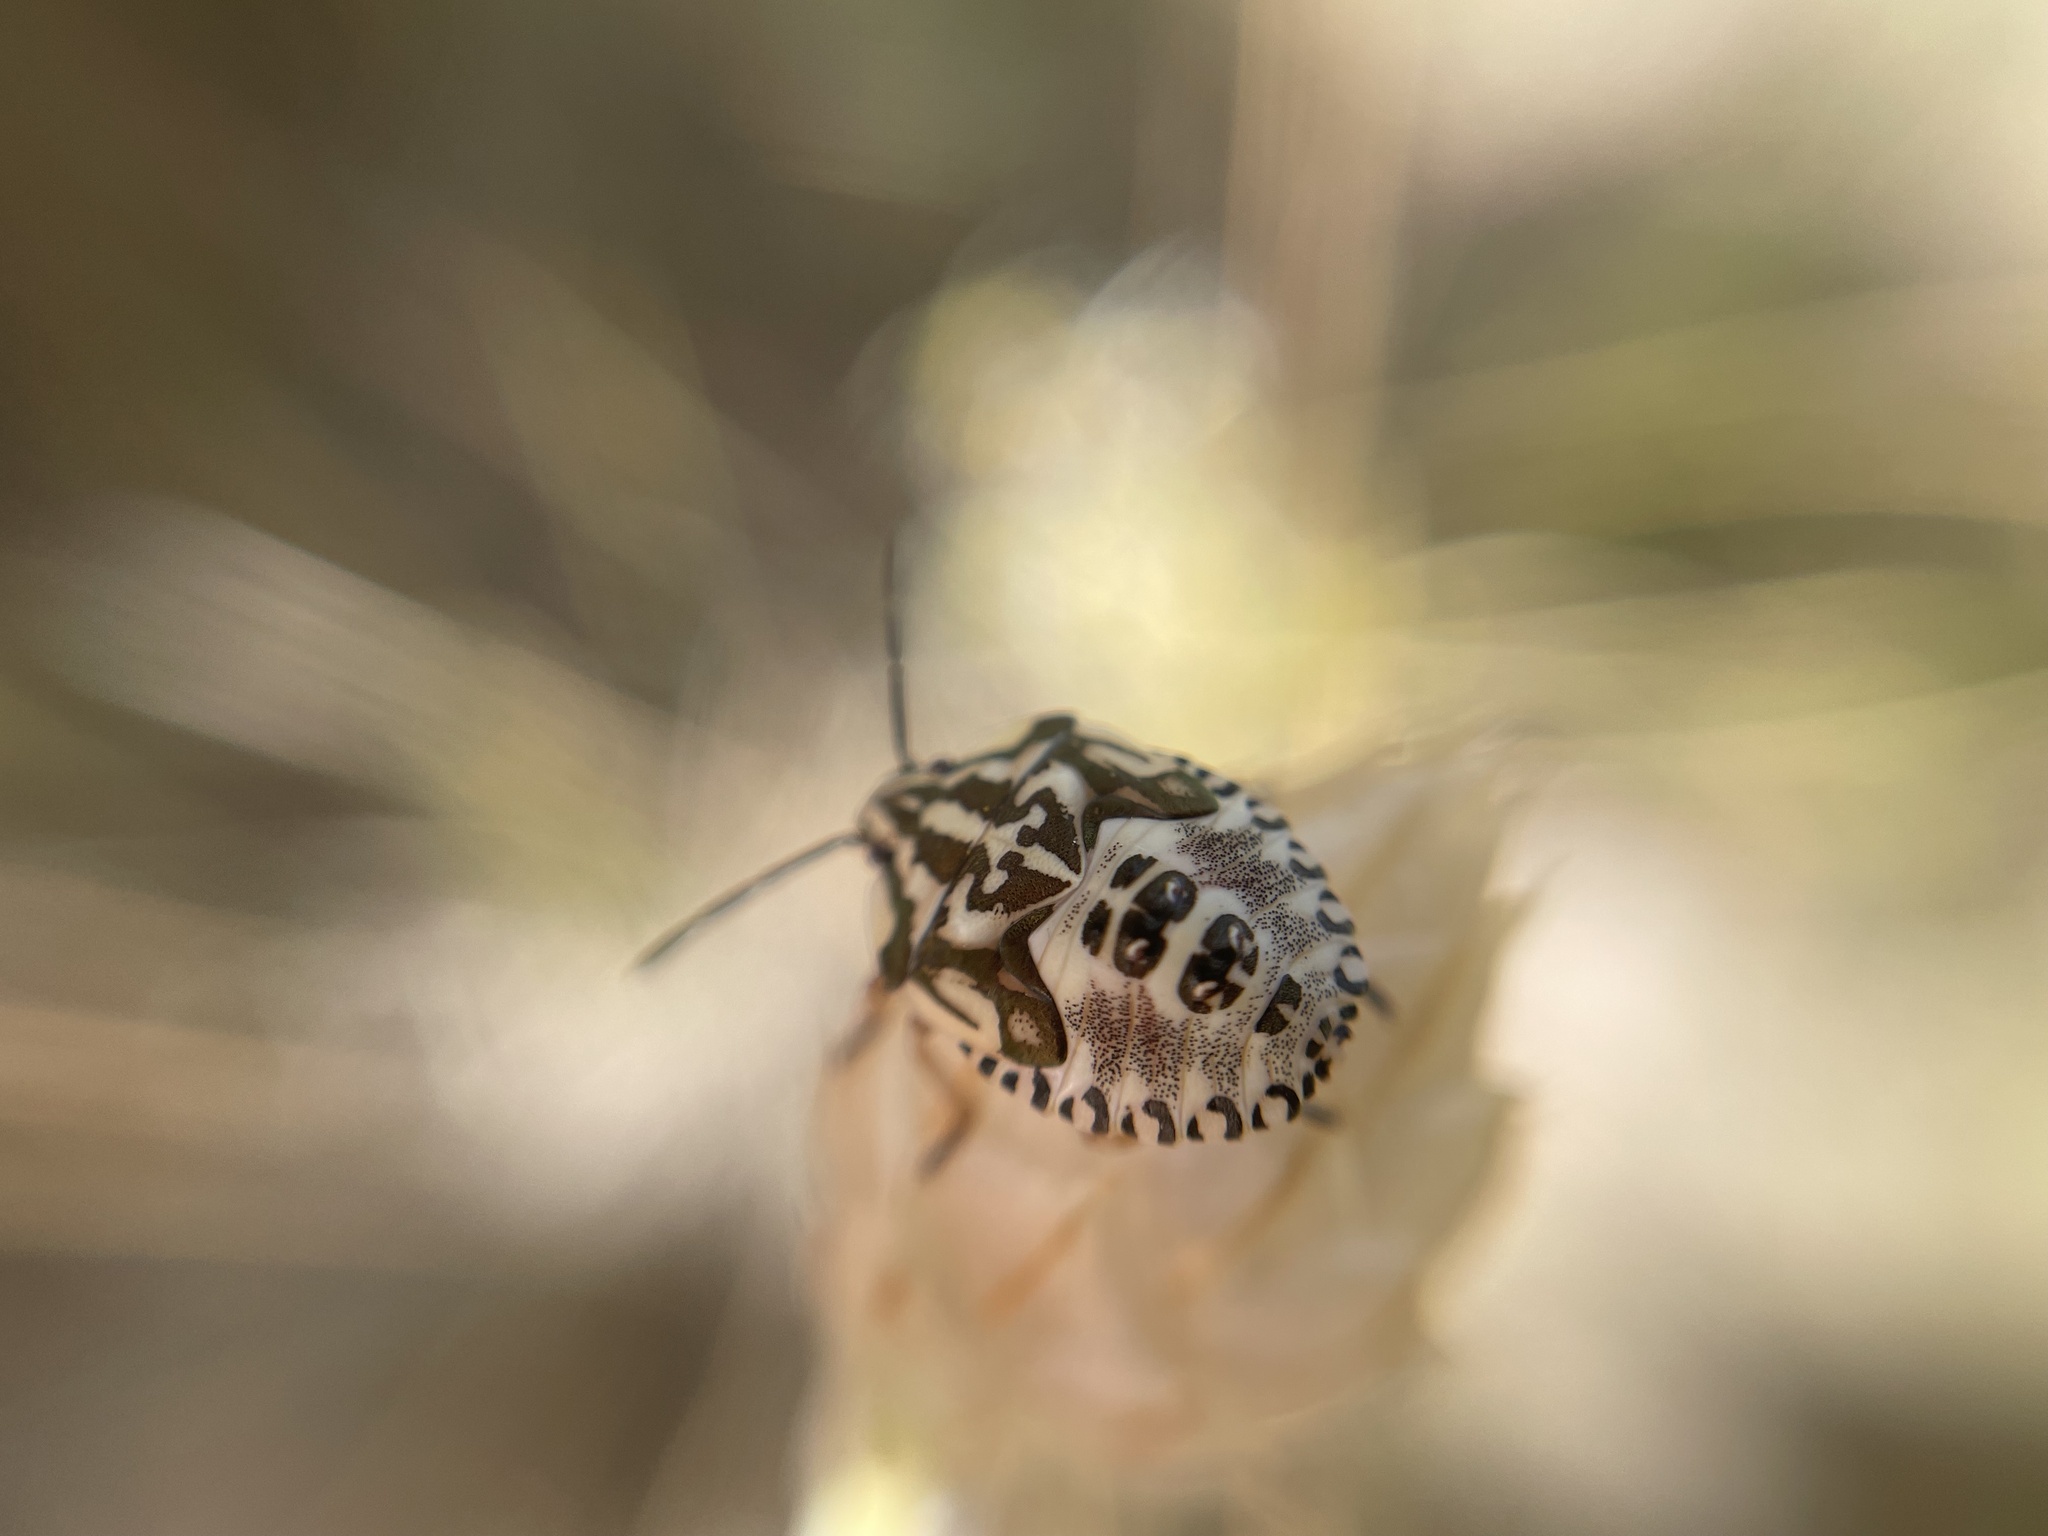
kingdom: Animalia
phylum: Arthropoda
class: Insecta
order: Hemiptera
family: Pentatomidae
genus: Carpocoris
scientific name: Carpocoris mediterraneus
